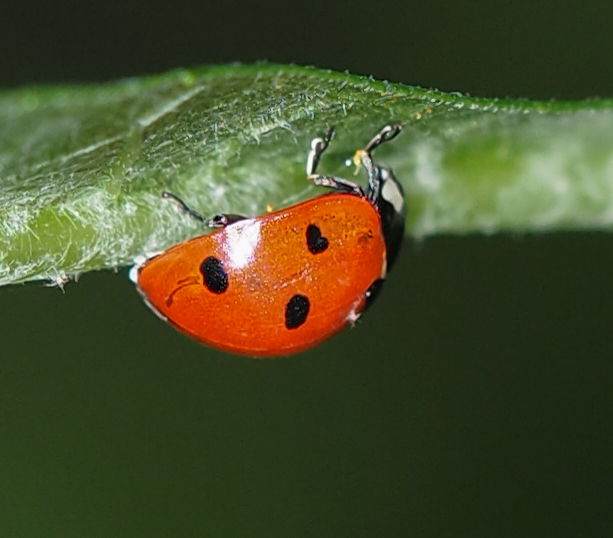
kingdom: Animalia
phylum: Arthropoda
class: Insecta
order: Coleoptera
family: Coccinellidae
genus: Coccinella
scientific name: Coccinella septempunctata
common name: Sevenspotted lady beetle
